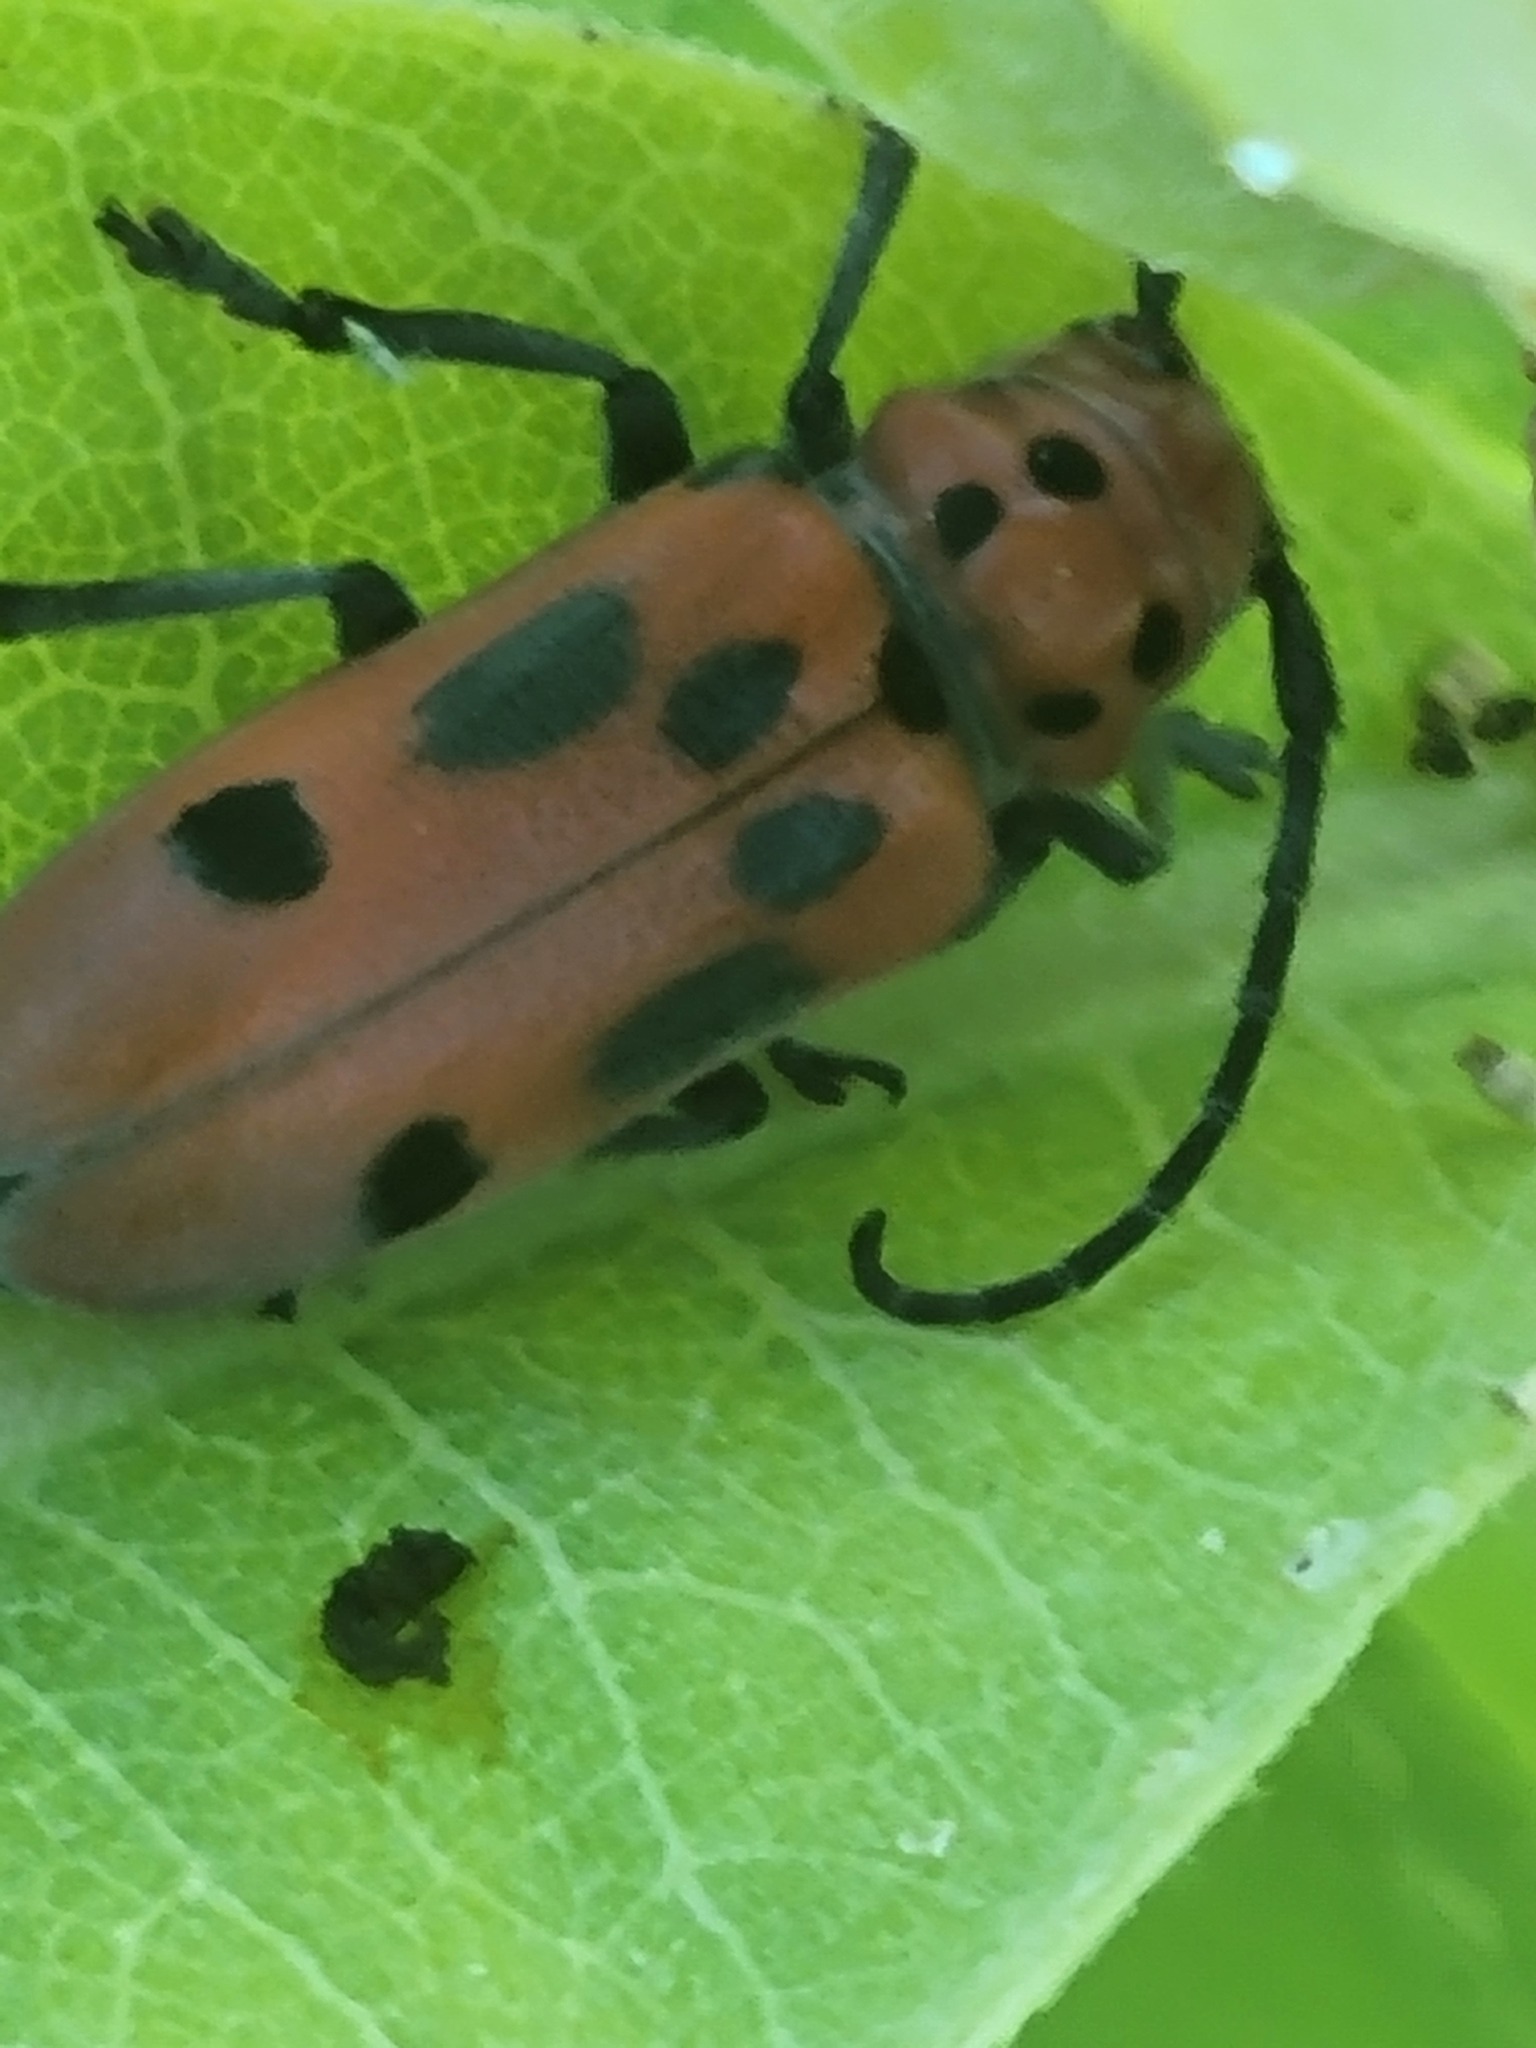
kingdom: Animalia
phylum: Arthropoda
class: Insecta
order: Coleoptera
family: Cerambycidae
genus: Tetraopes
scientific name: Tetraopes tetrophthalmus
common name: Red milkweed beetle
